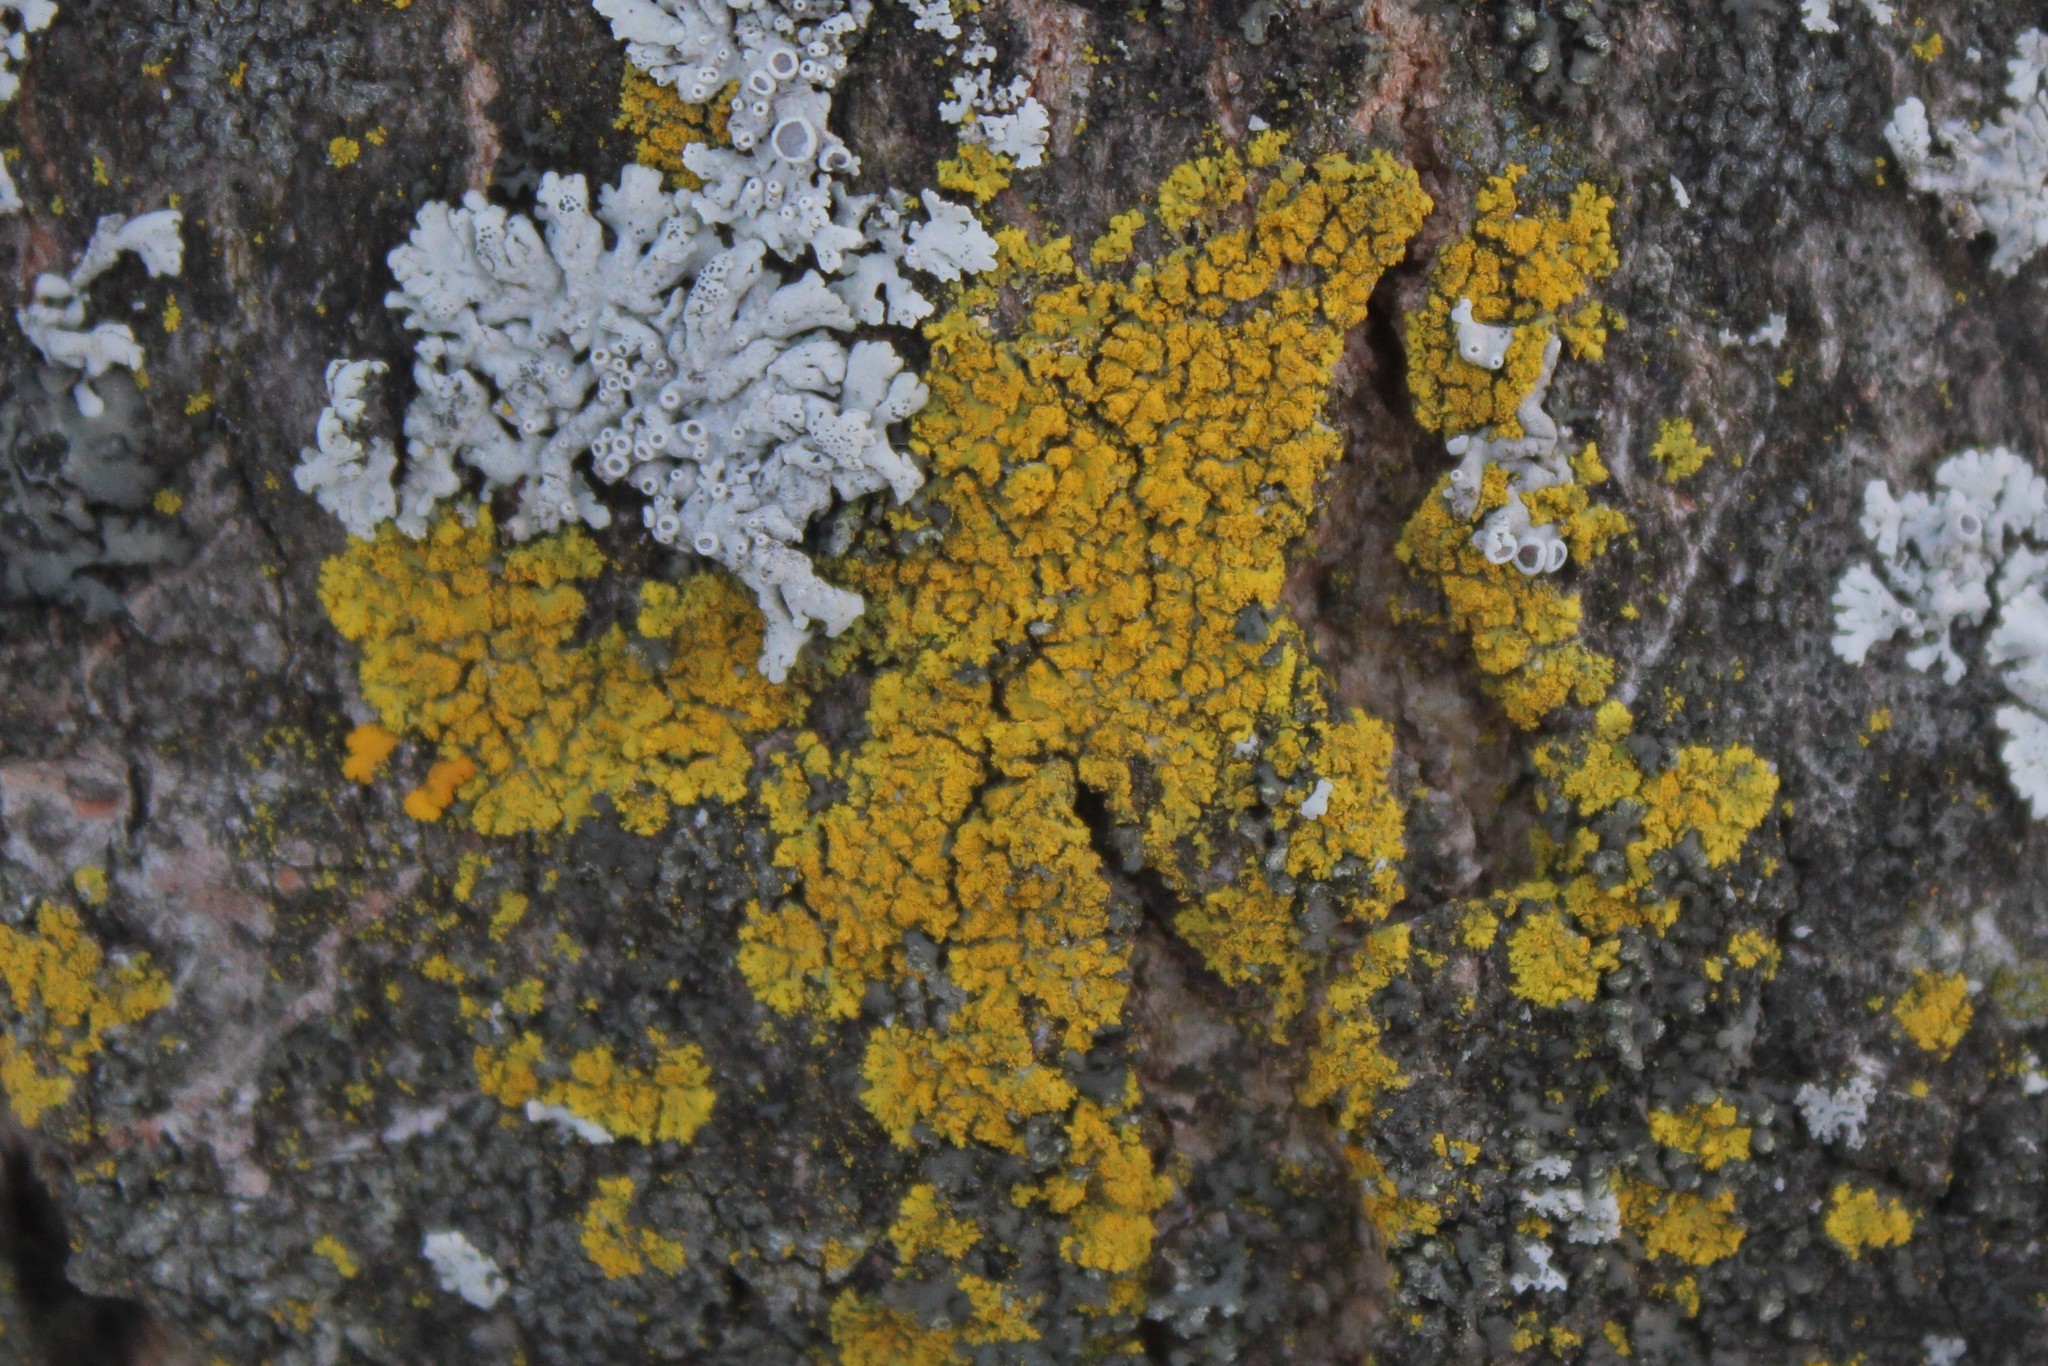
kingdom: Fungi
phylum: Ascomycota
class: Candelariomycetes
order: Candelariales
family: Candelariaceae
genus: Candelaria
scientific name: Candelaria concolor
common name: Candleflame lichen
